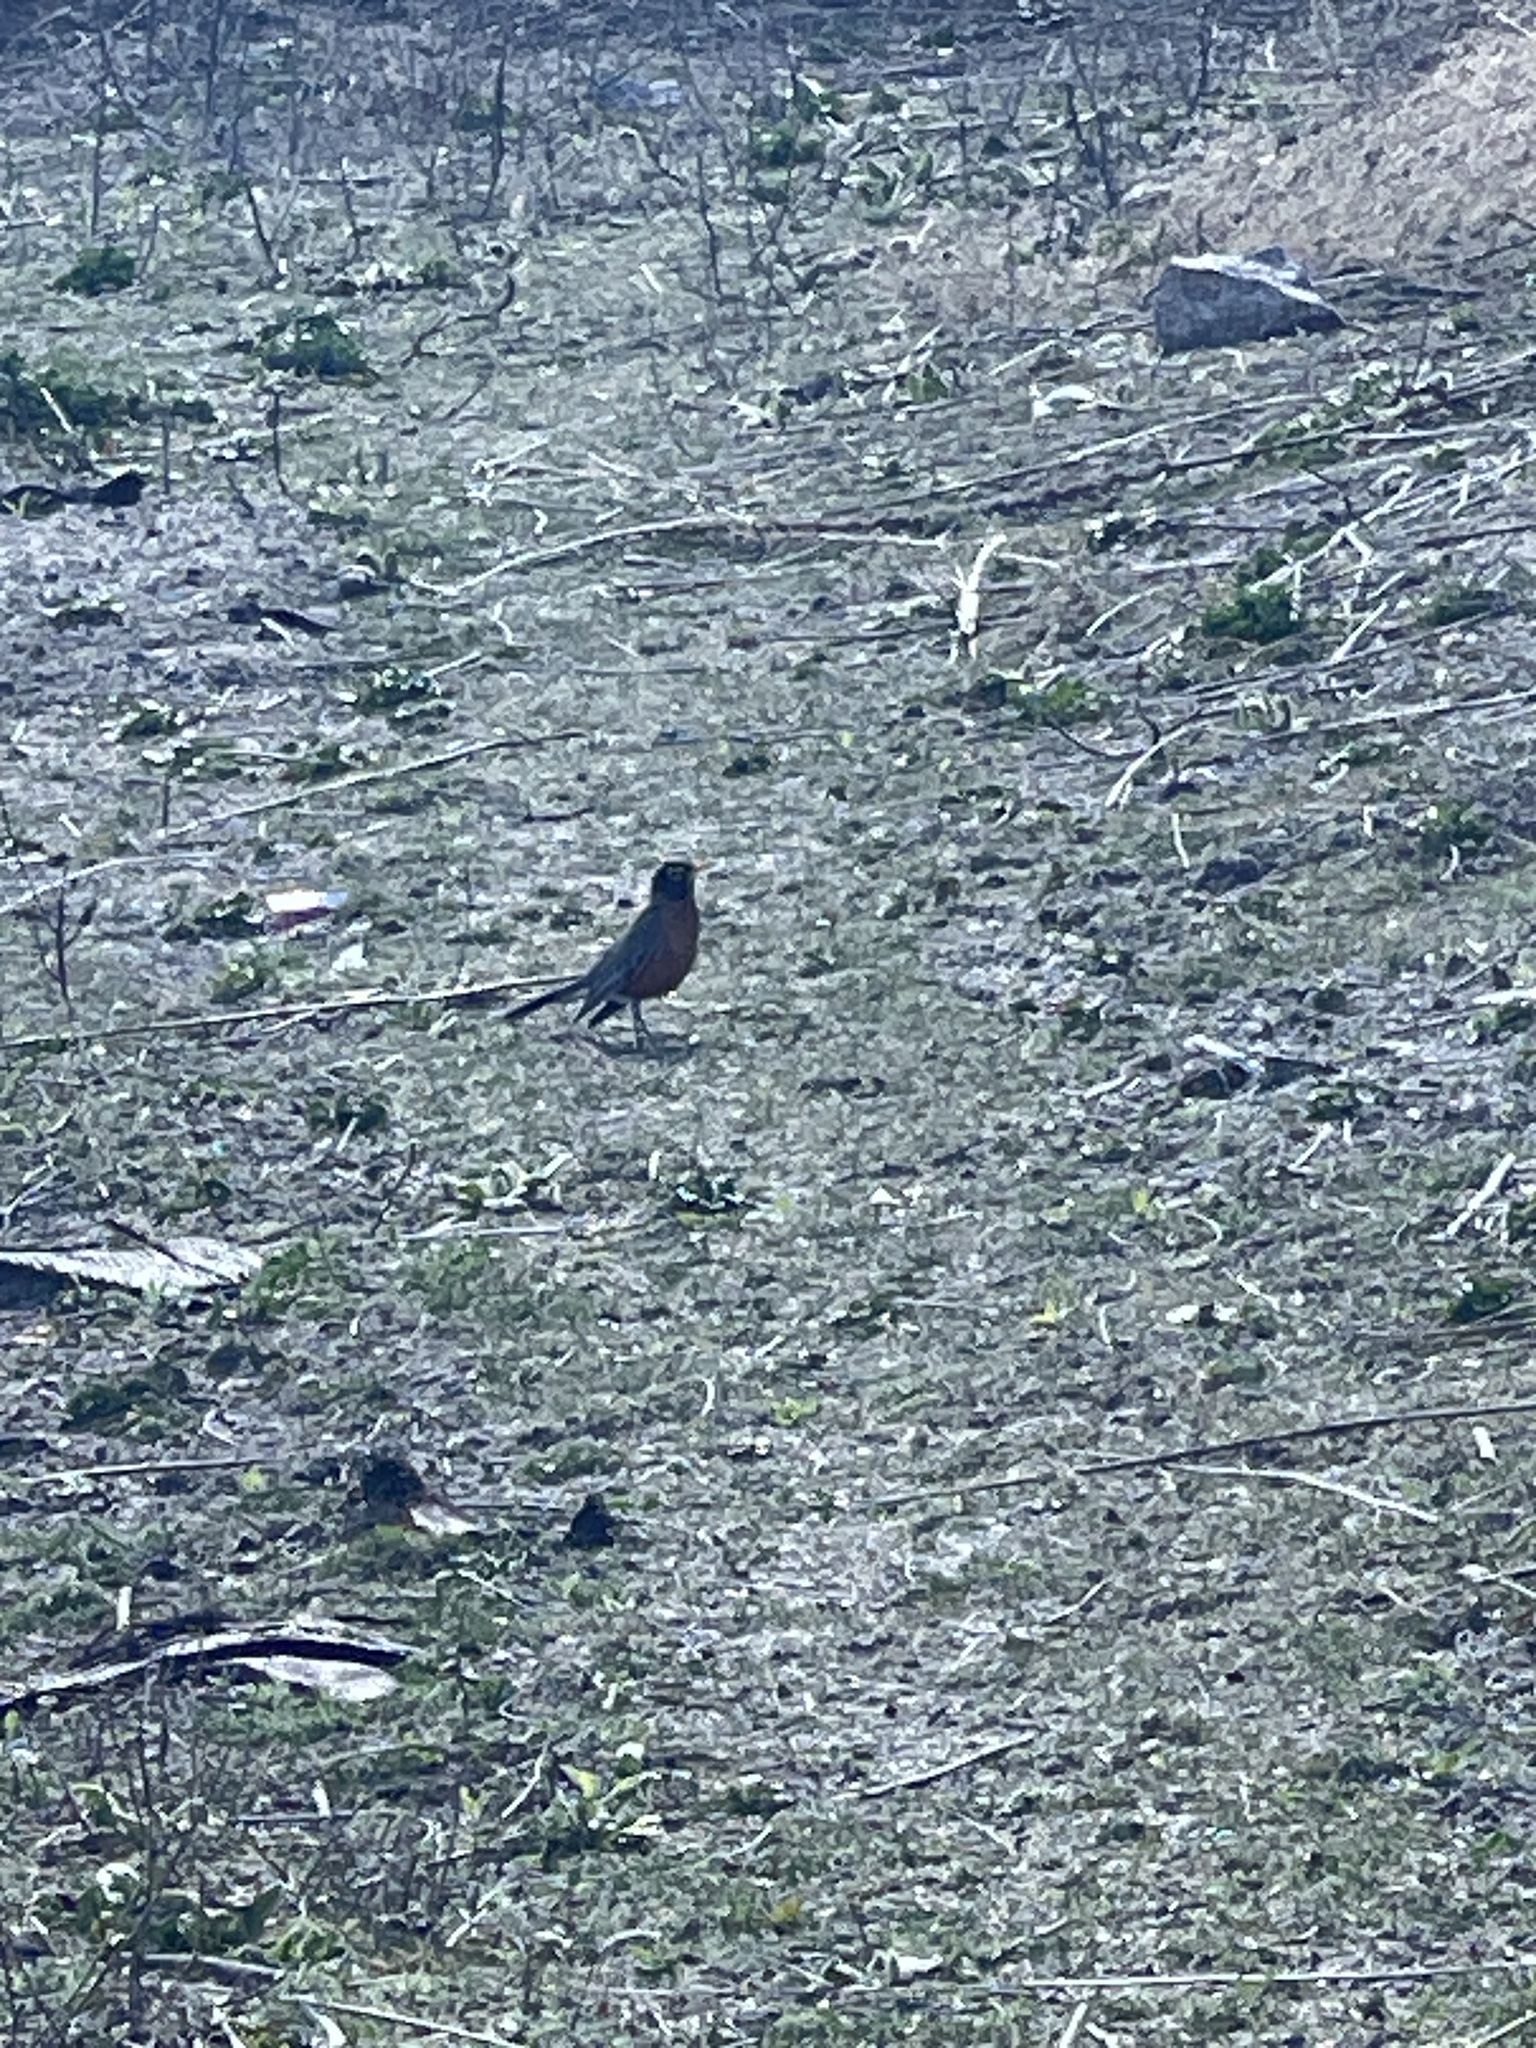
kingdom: Animalia
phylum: Chordata
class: Aves
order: Passeriformes
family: Turdidae
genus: Turdus
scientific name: Turdus migratorius
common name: American robin
